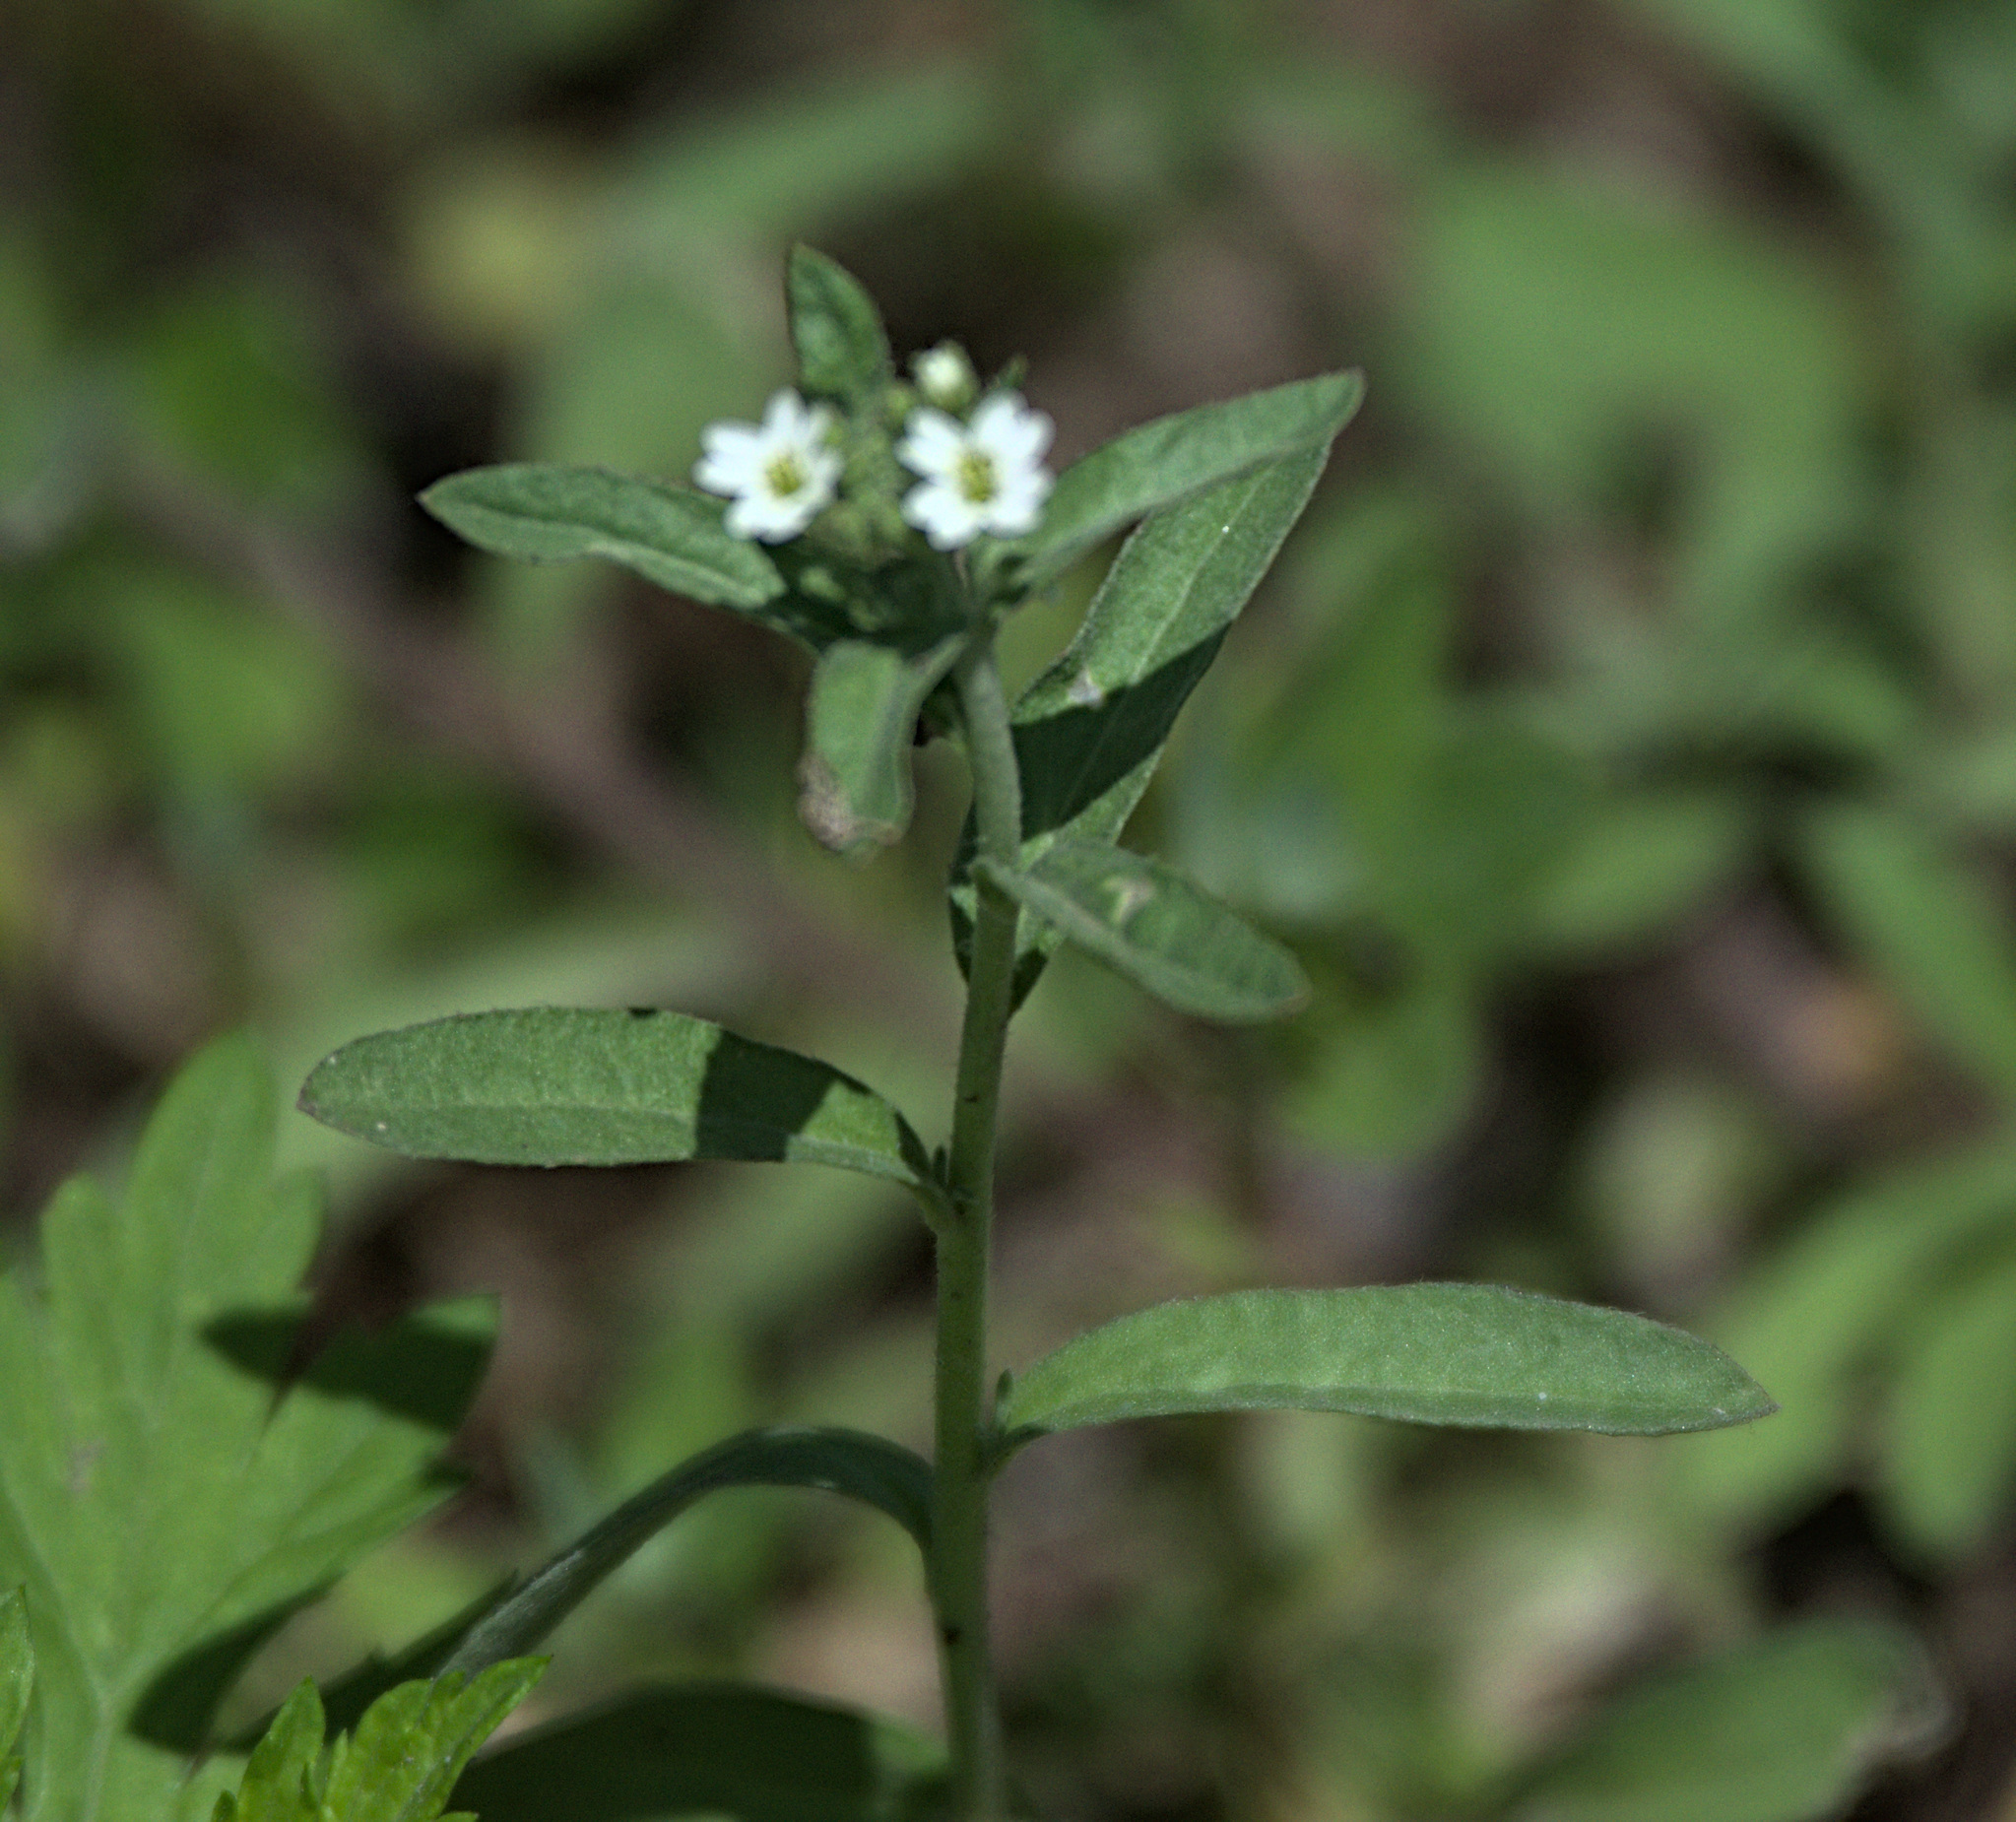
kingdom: Plantae
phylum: Tracheophyta
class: Magnoliopsida
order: Brassicales
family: Brassicaceae
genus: Berteroa
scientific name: Berteroa incana
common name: Hoary alison
